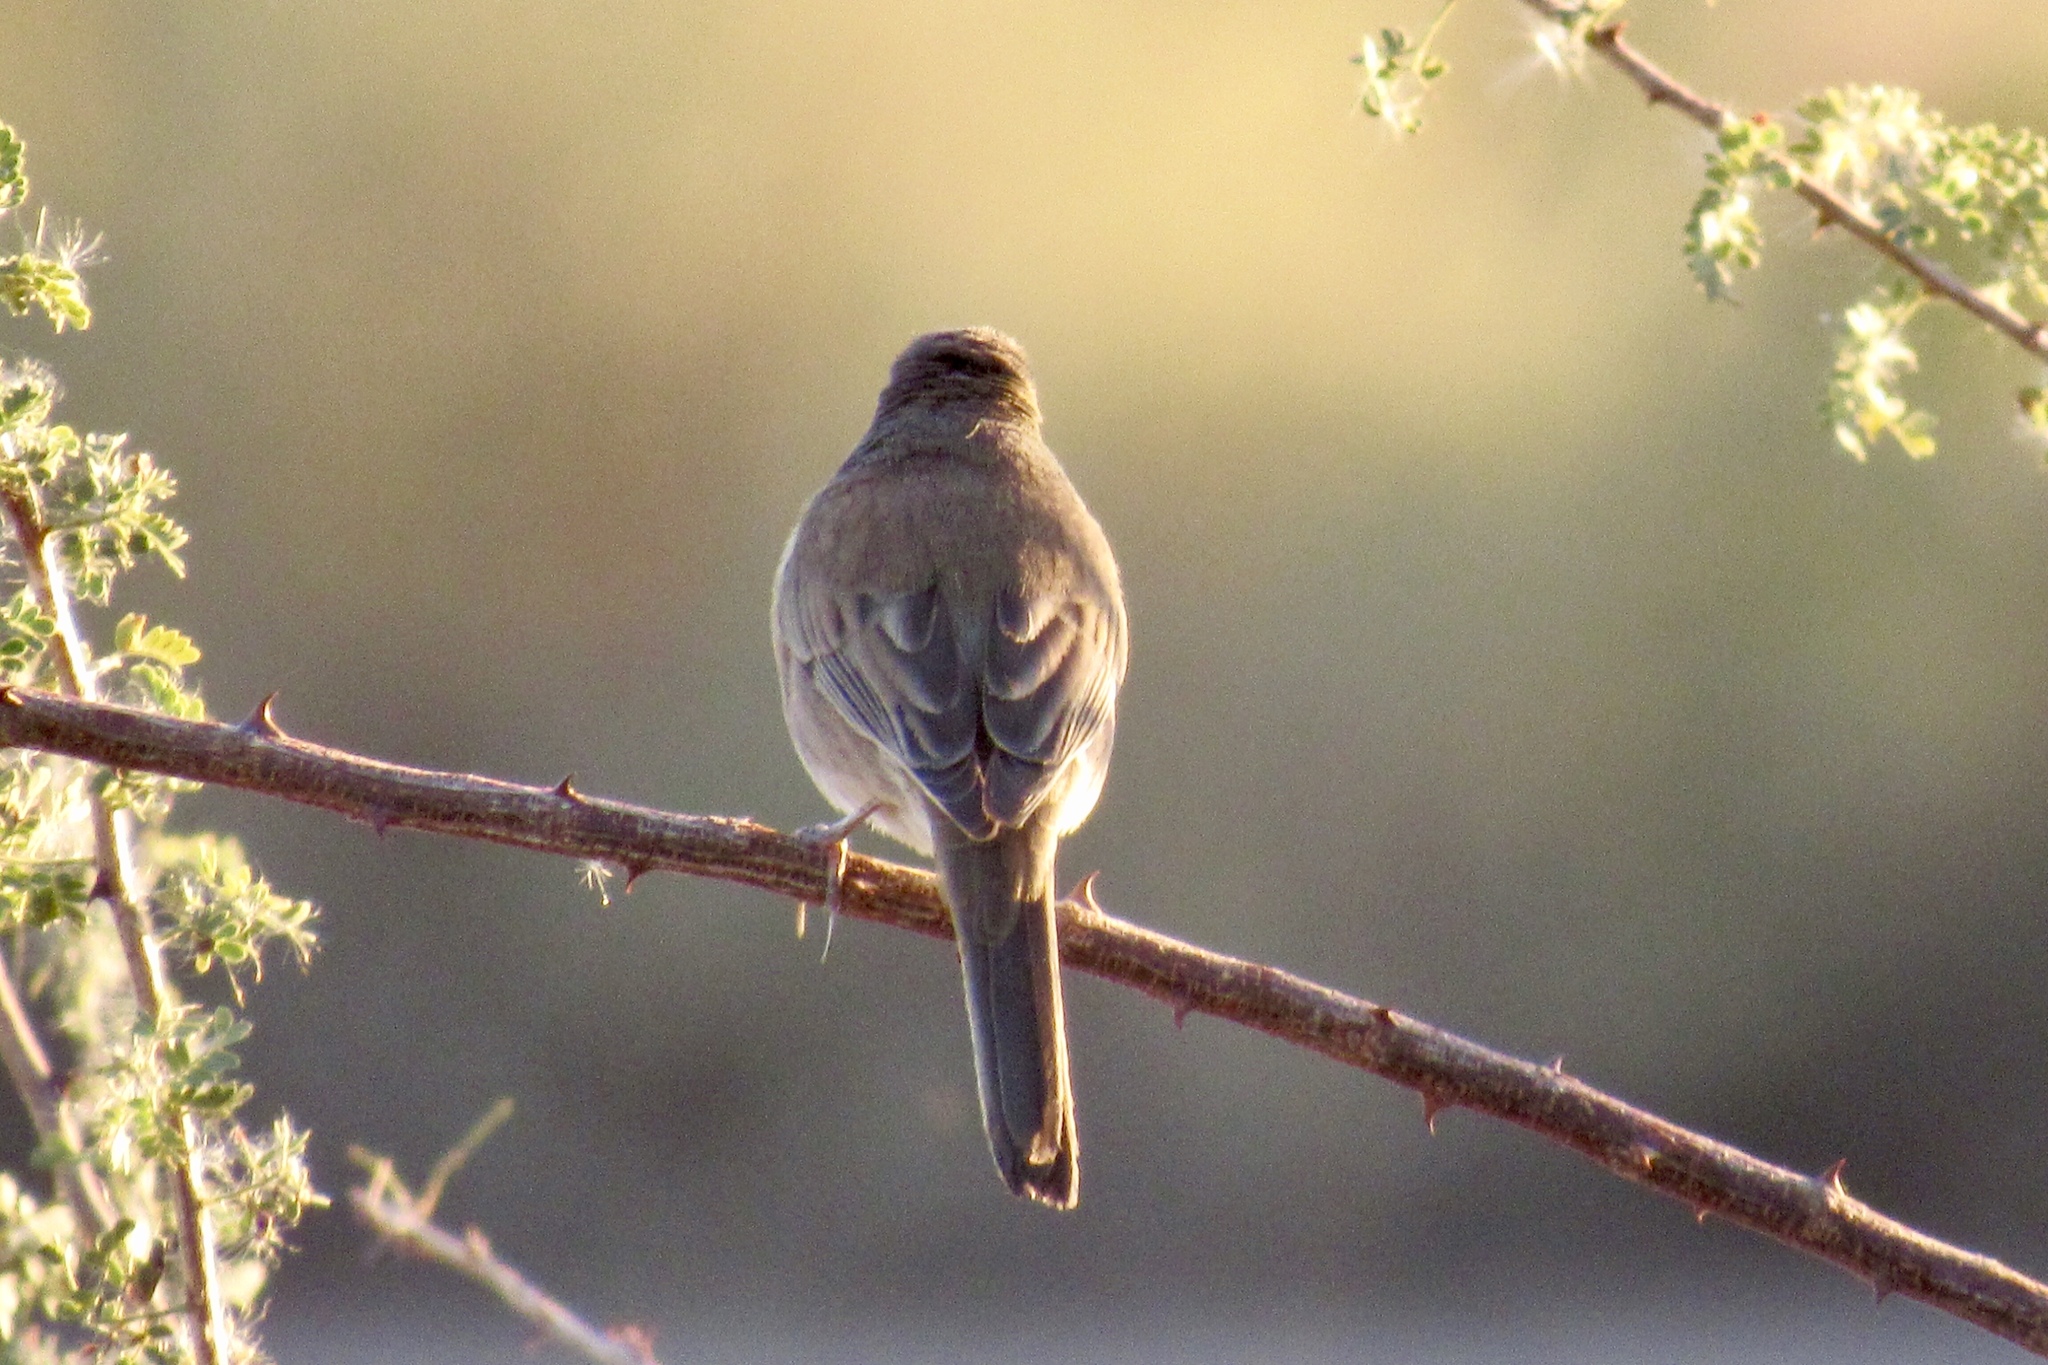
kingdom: Animalia
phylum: Chordata
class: Aves
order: Passeriformes
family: Passerellidae
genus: Junco
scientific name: Junco hyemalis
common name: Dark-eyed junco
